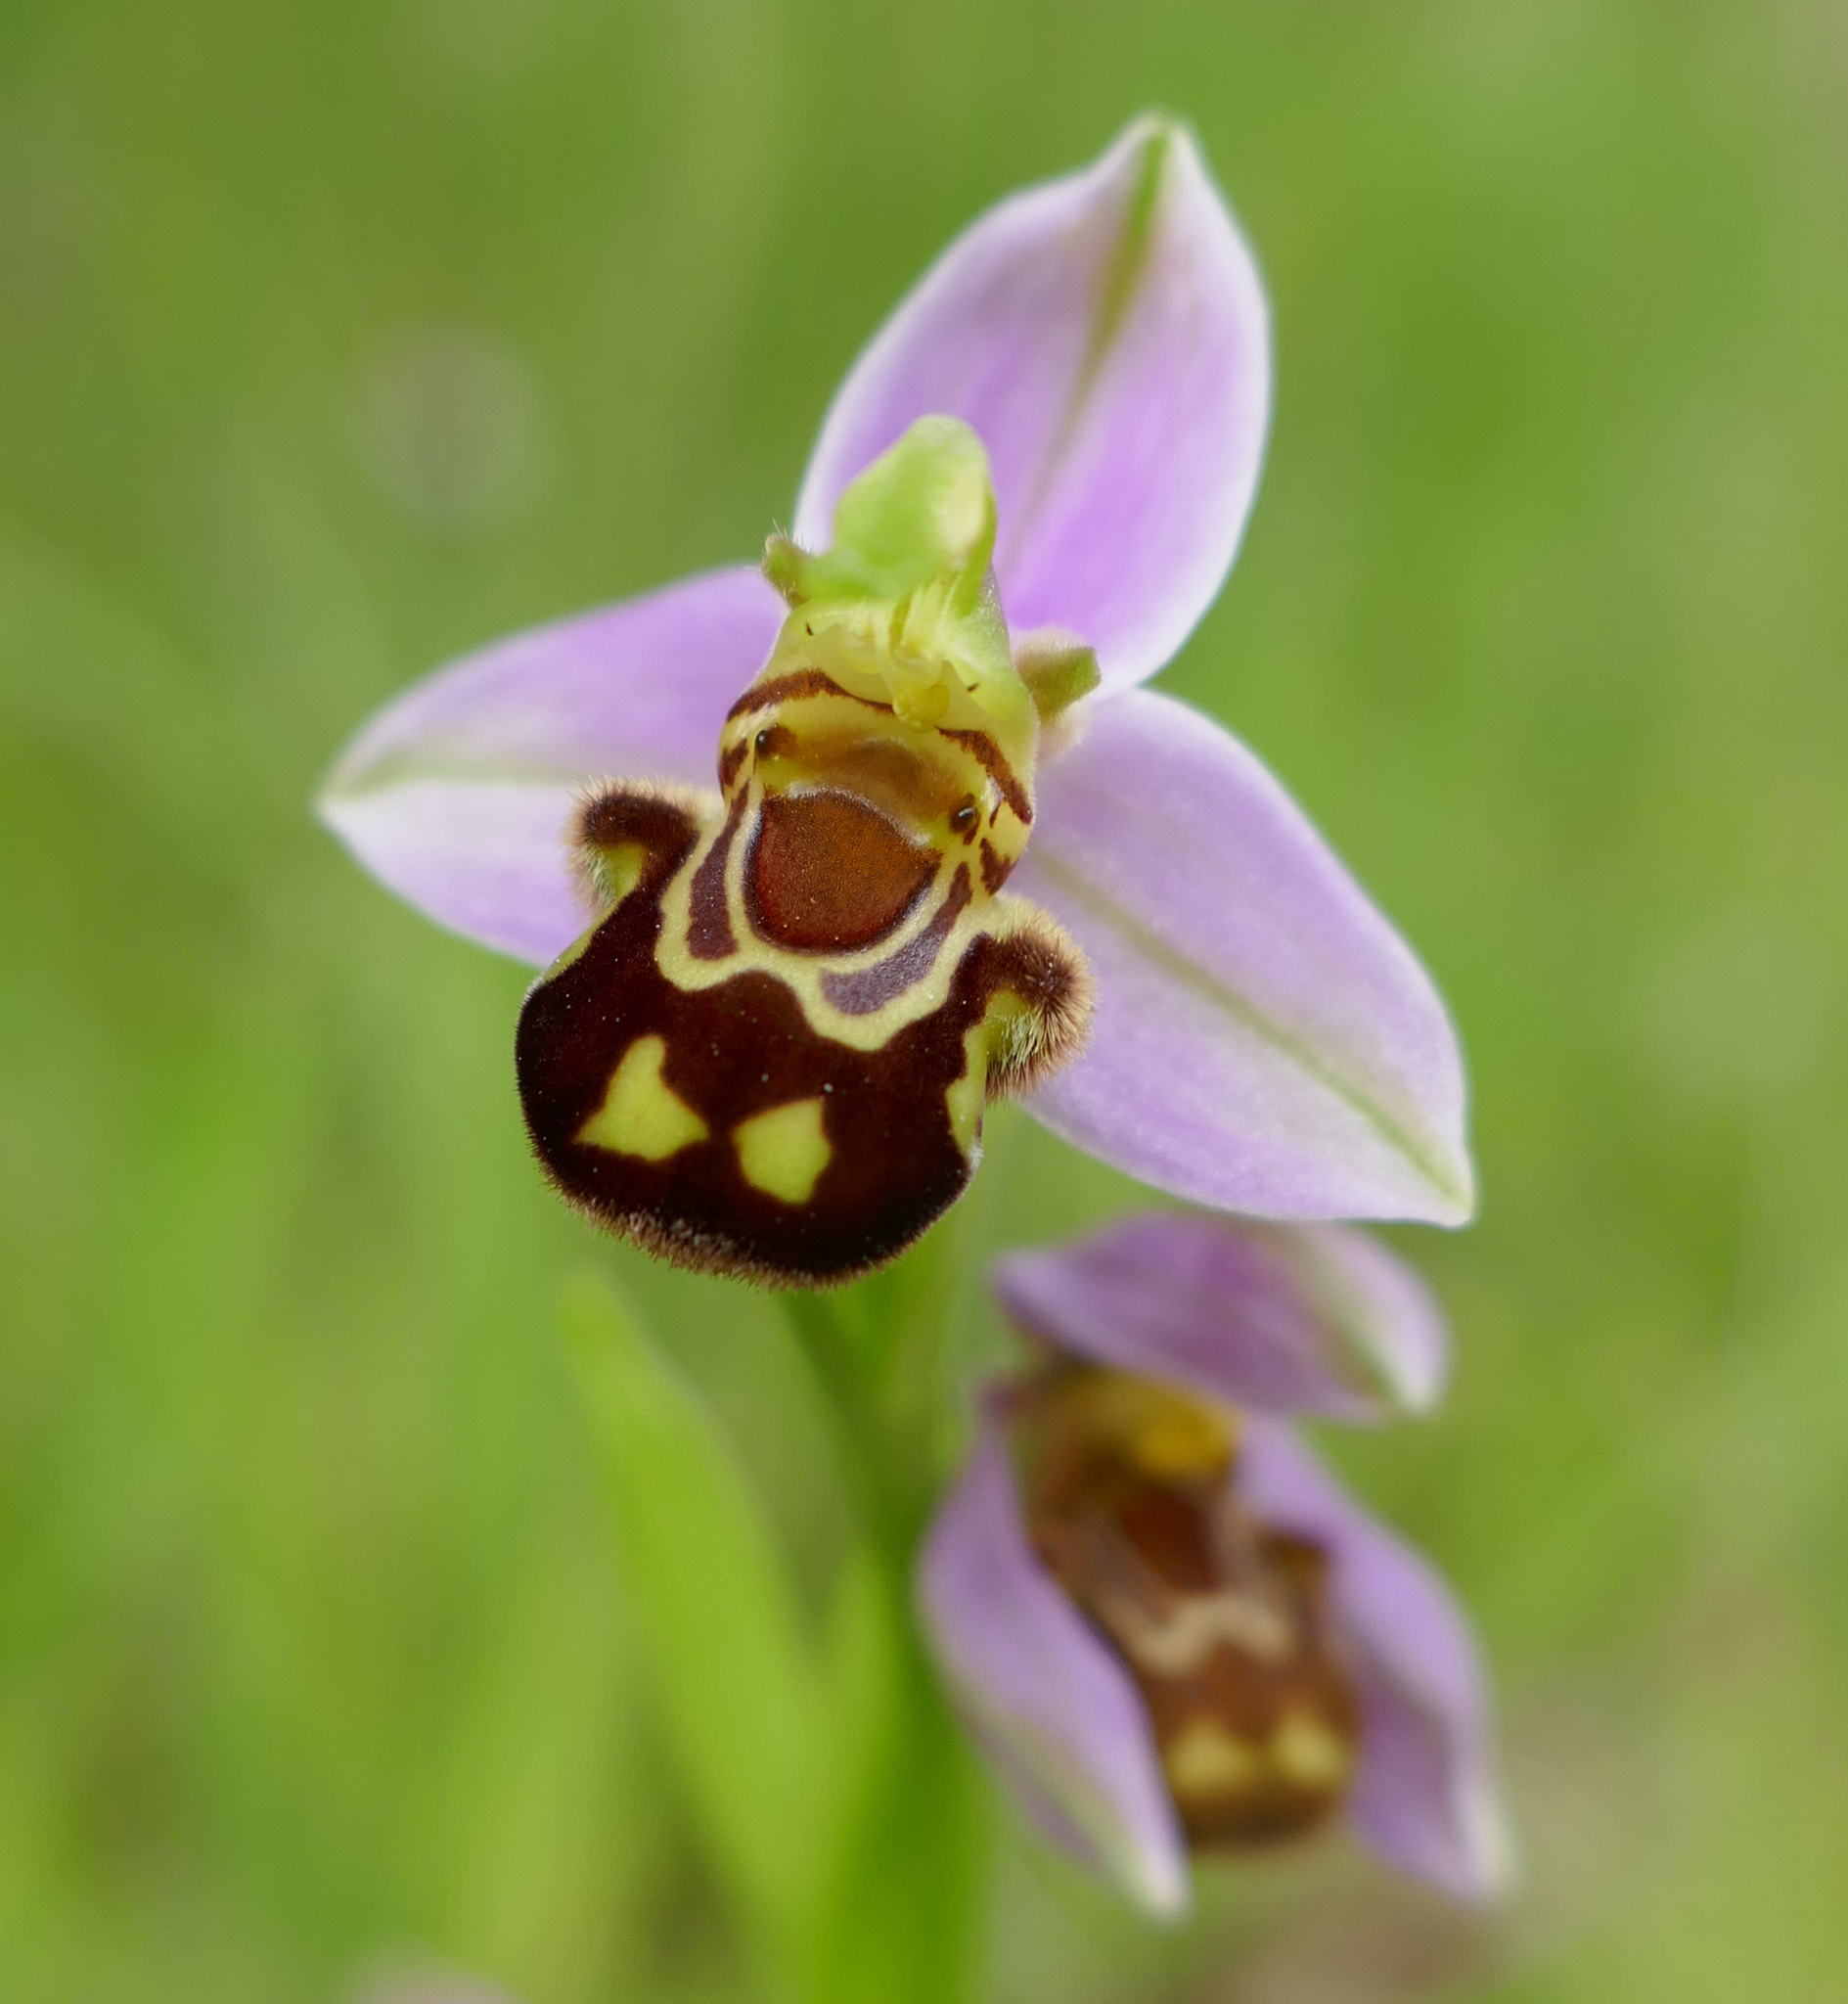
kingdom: Plantae
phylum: Tracheophyta
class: Liliopsida
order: Asparagales
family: Orchidaceae
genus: Ophrys
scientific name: Ophrys apifera
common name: Bee orchid
